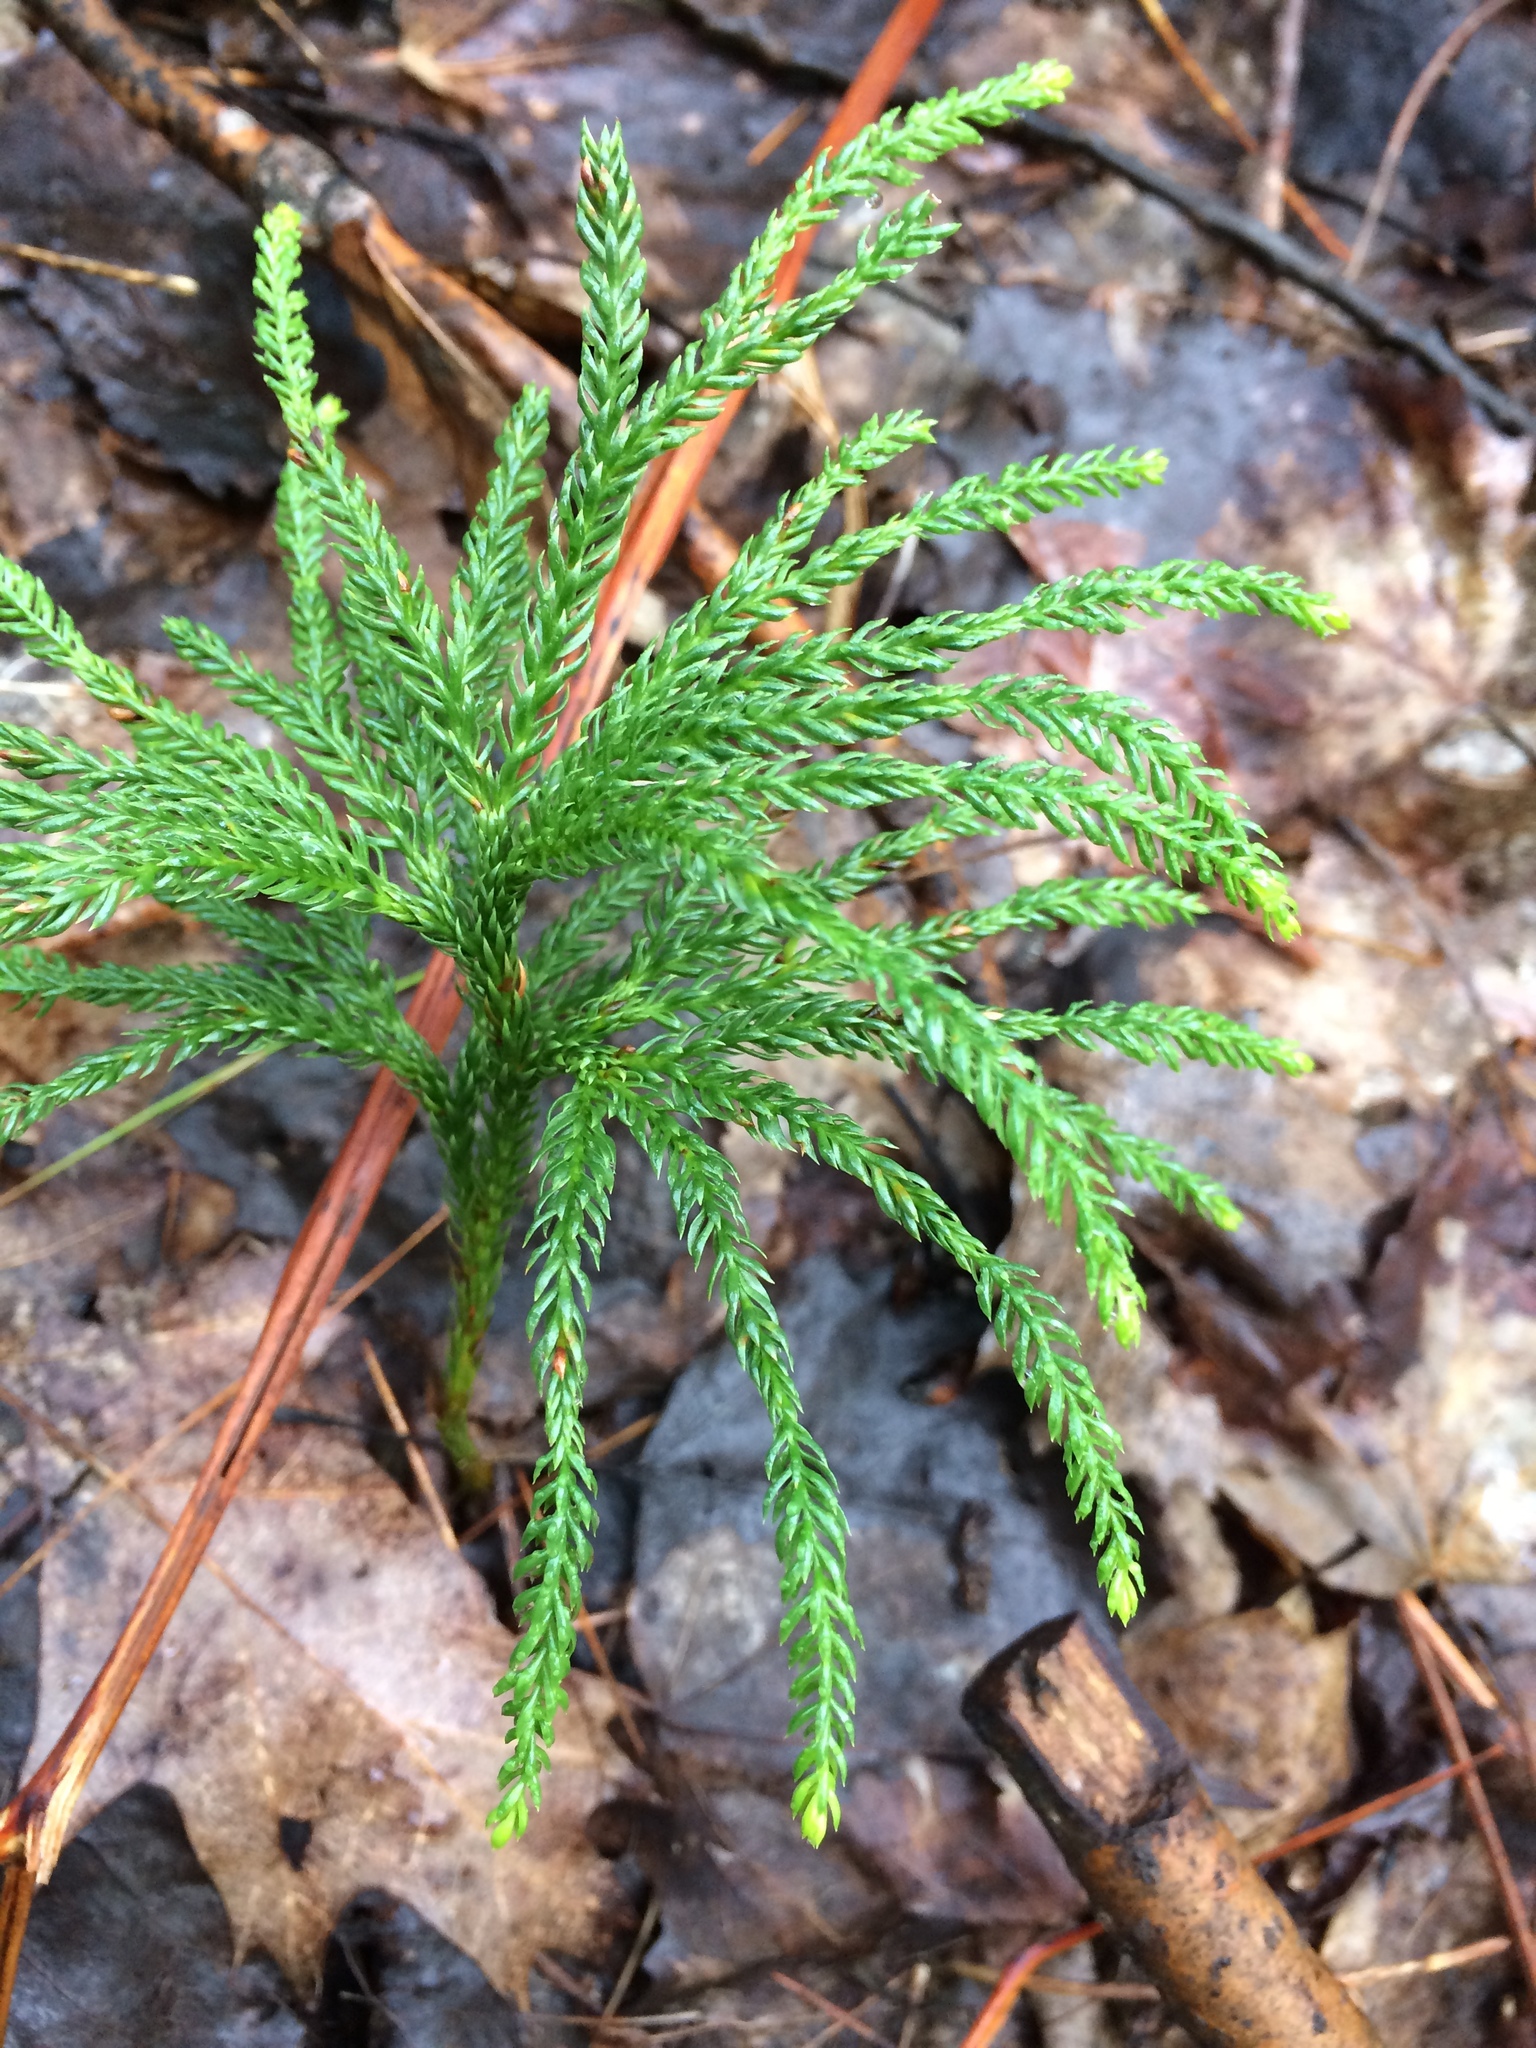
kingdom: Plantae
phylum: Tracheophyta
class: Lycopodiopsida
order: Lycopodiales
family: Lycopodiaceae
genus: Dendrolycopodium
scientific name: Dendrolycopodium obscurum
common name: Common ground-pine
